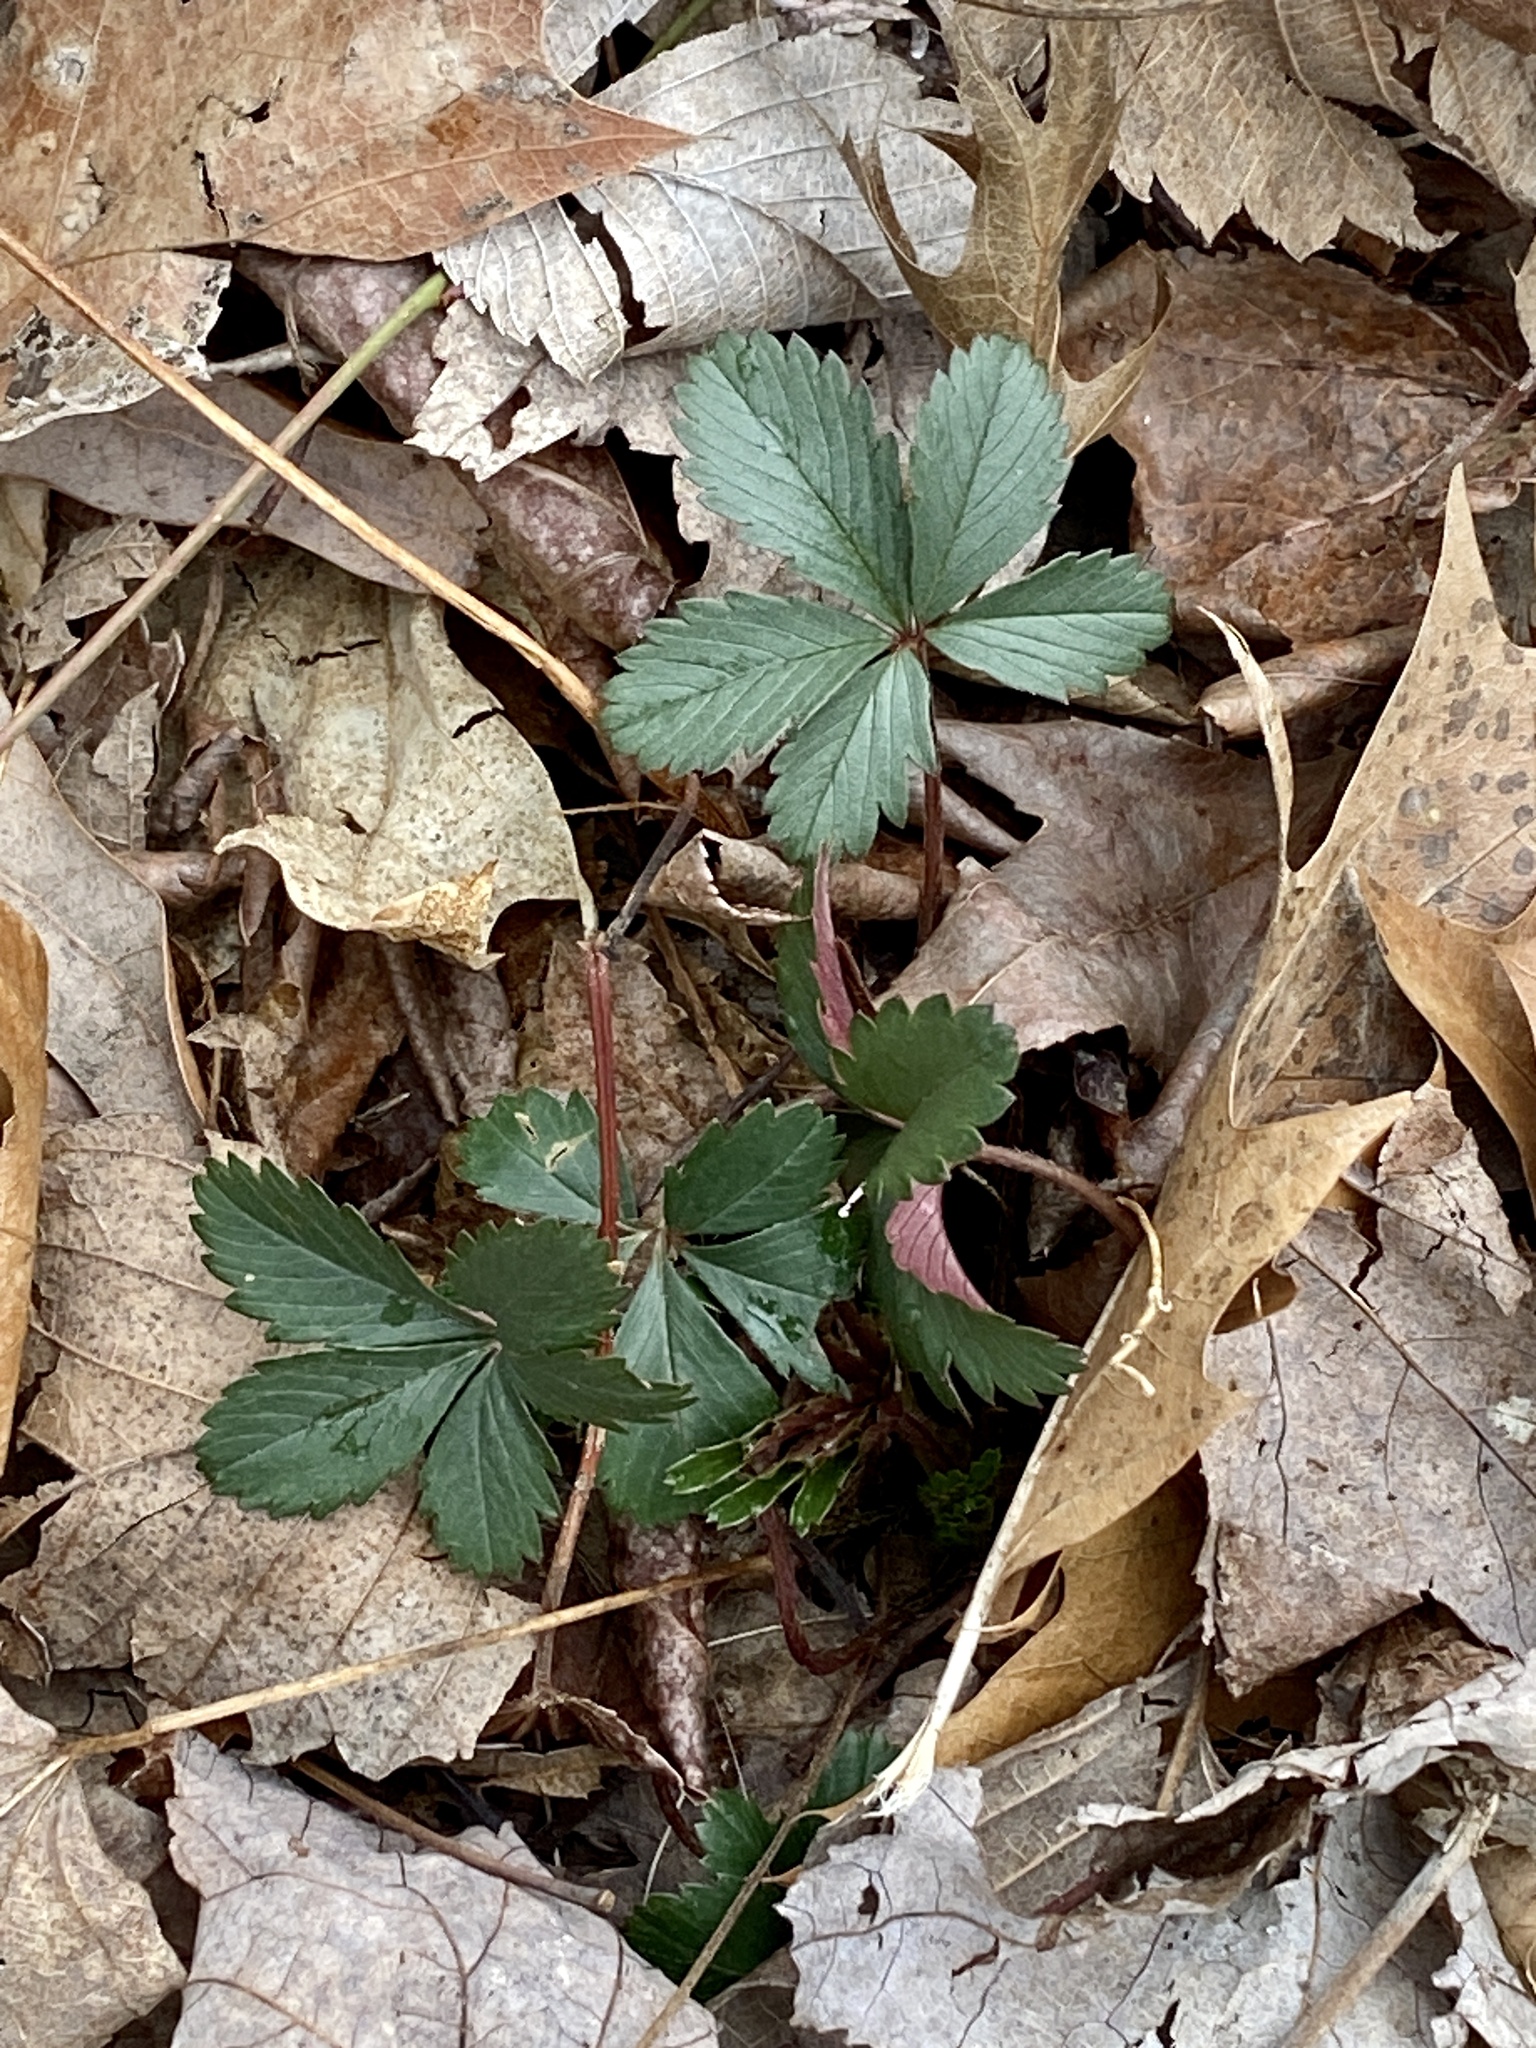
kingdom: Plantae
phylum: Tracheophyta
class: Magnoliopsida
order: Rosales
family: Rosaceae
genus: Potentilla
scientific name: Potentilla canadensis
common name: Canada cinquefoil
